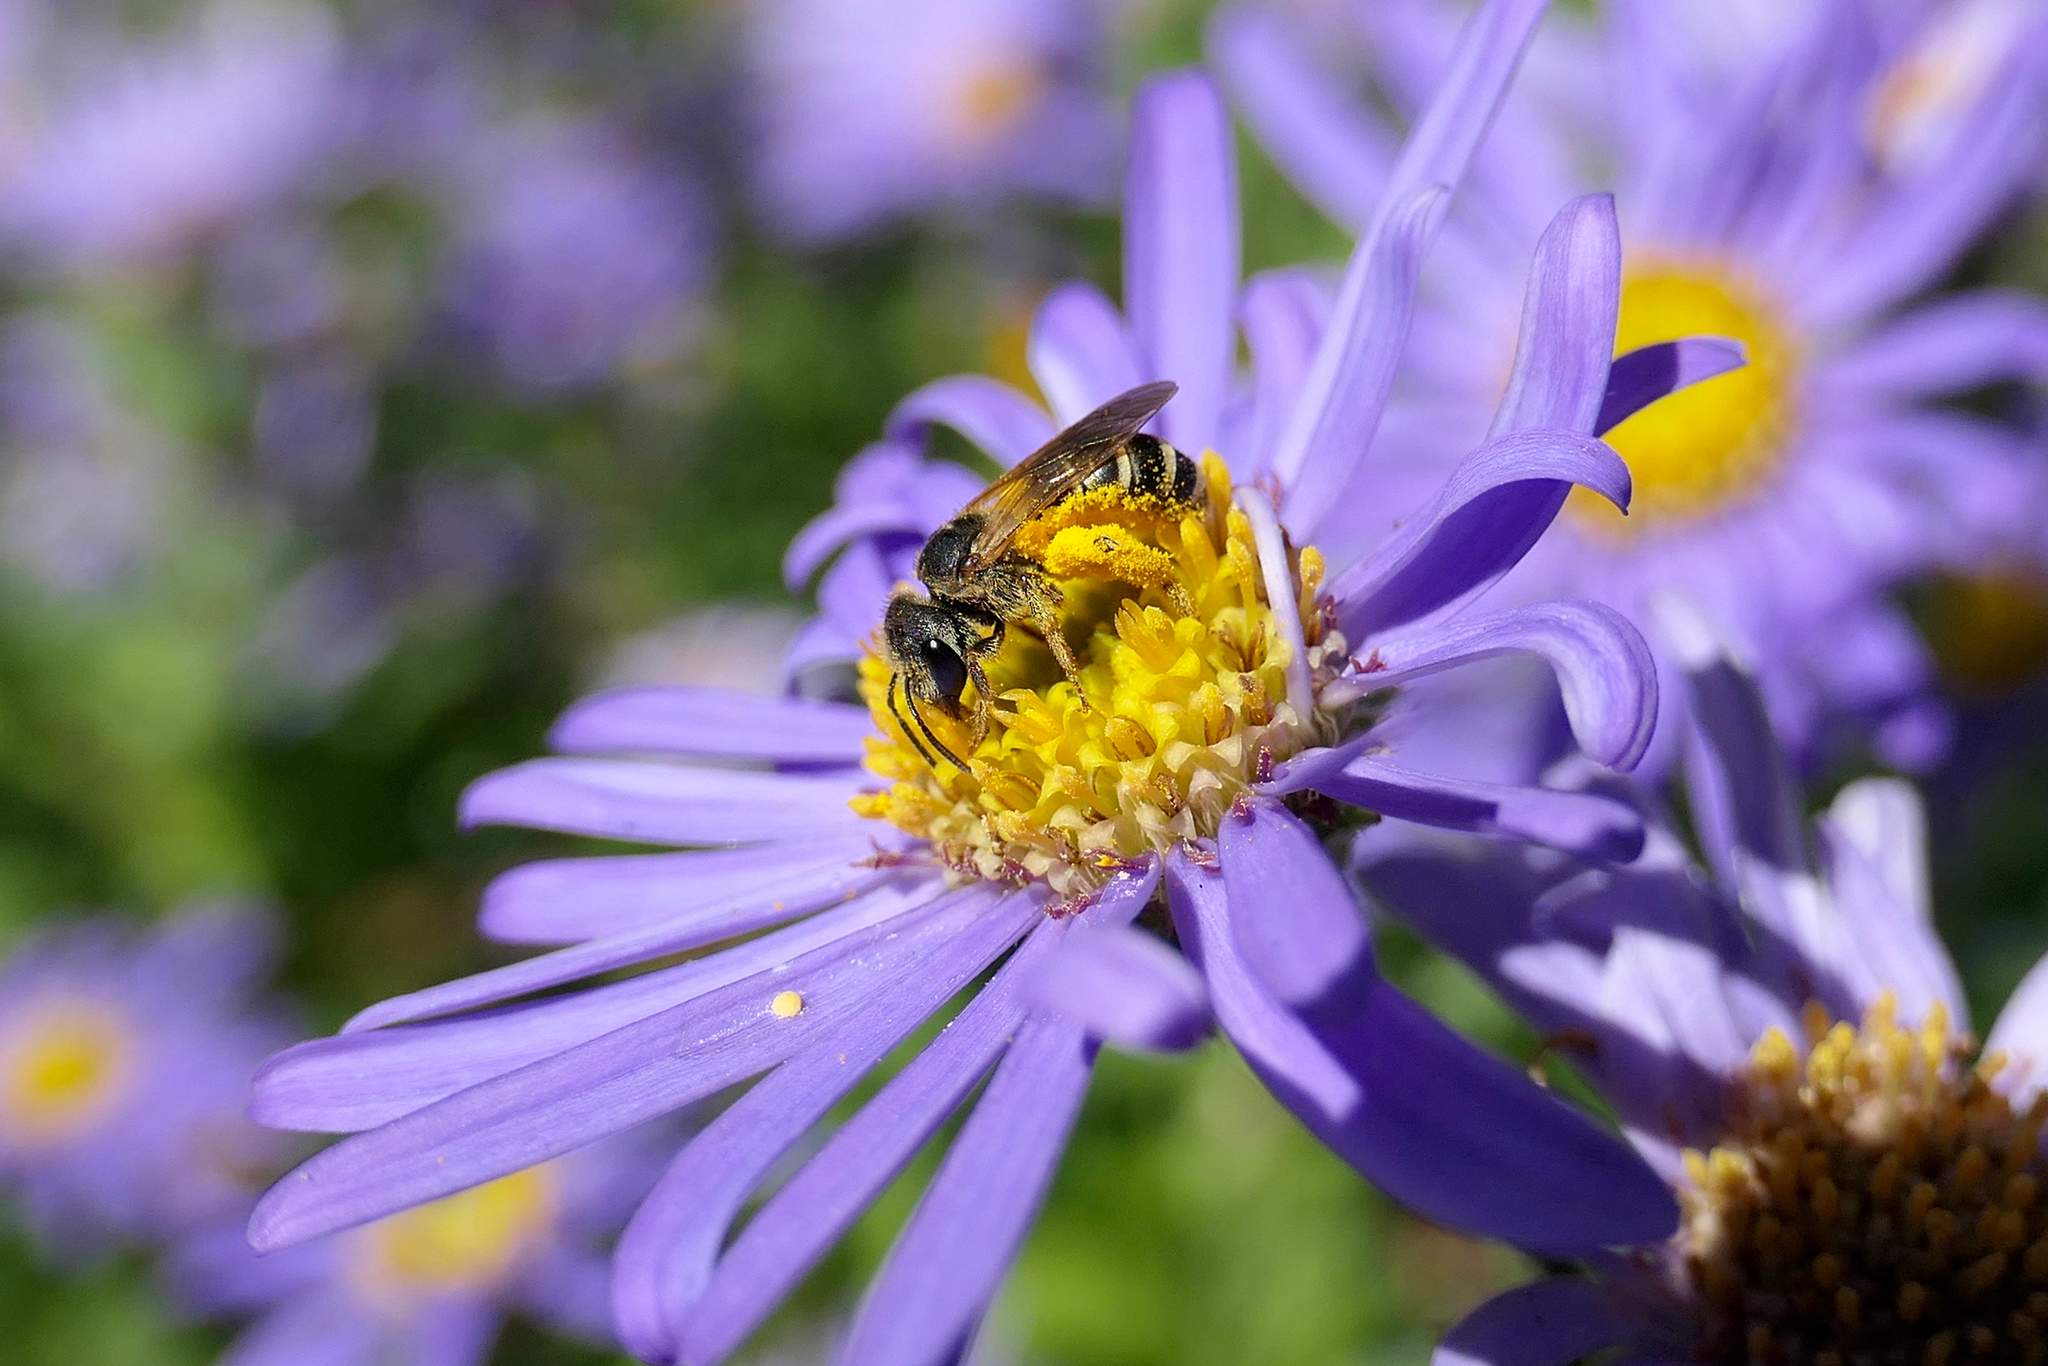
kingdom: Animalia
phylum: Arthropoda
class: Insecta
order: Hymenoptera
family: Halictidae
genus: Halictus
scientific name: Halictus ligatus
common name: Ligated furrow bee
